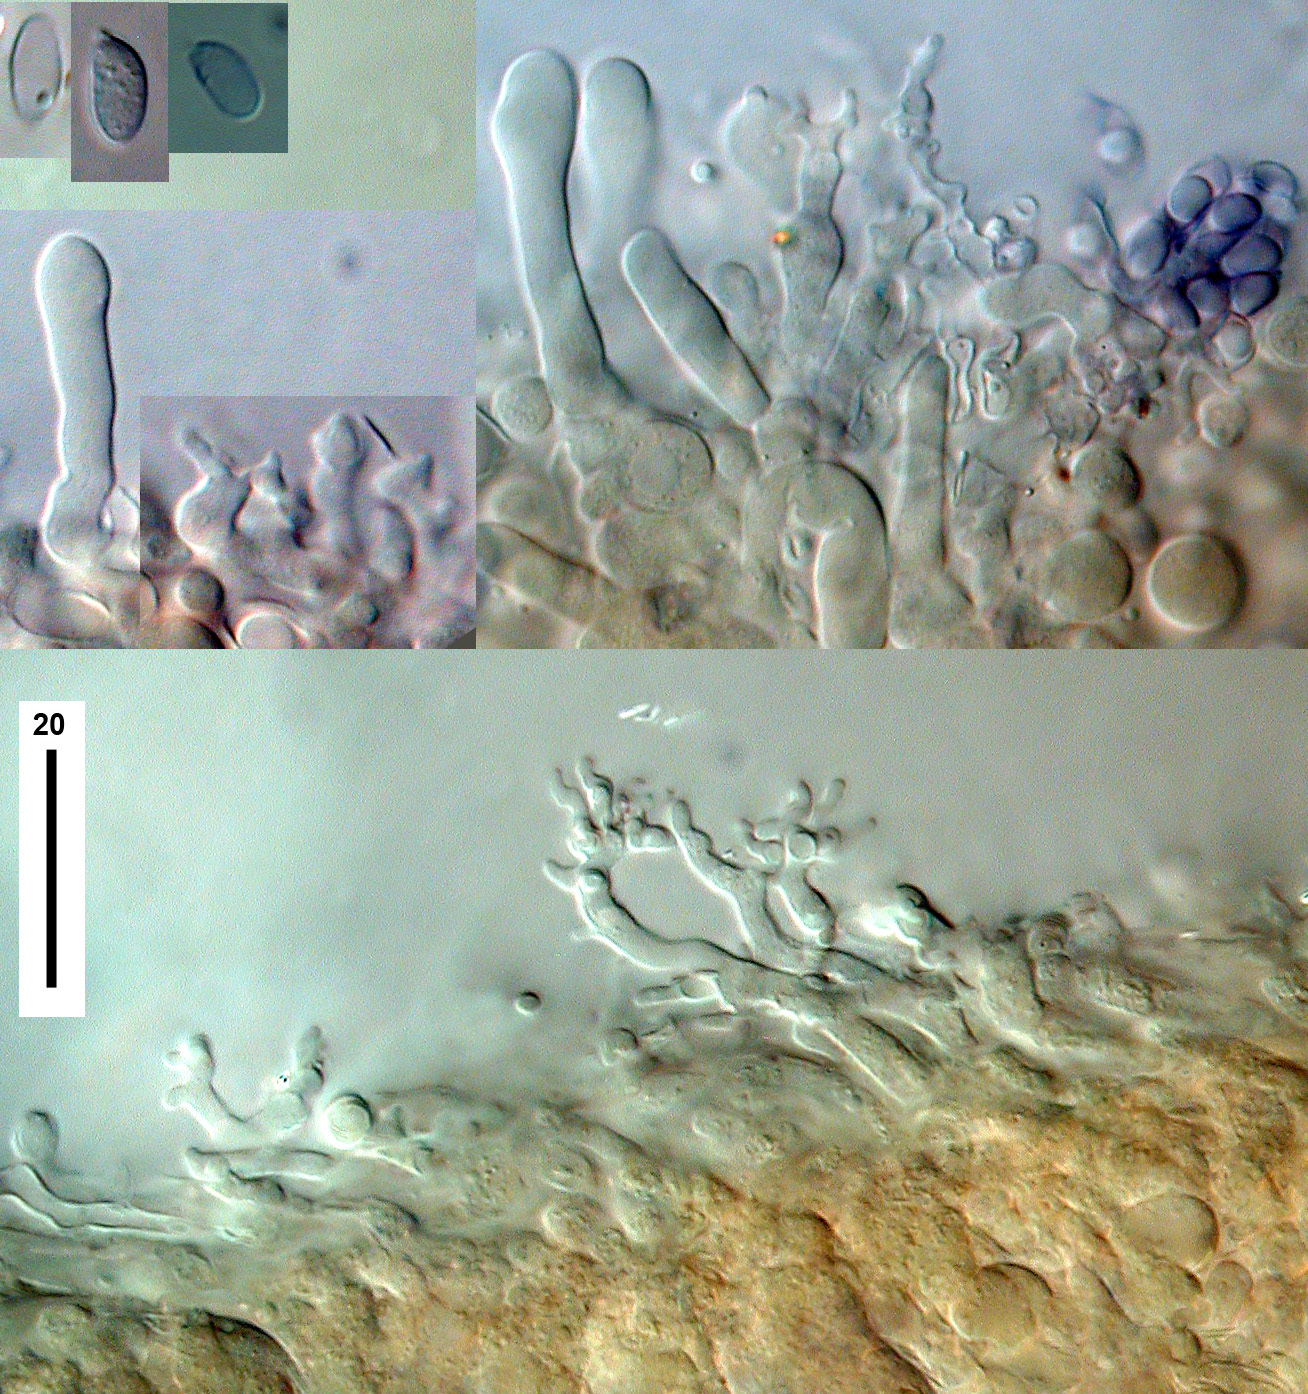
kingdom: Fungi
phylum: Basidiomycota
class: Agaricomycetes
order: Agaricales
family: Mycenaceae
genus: Panellus
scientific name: Panellus minimus
